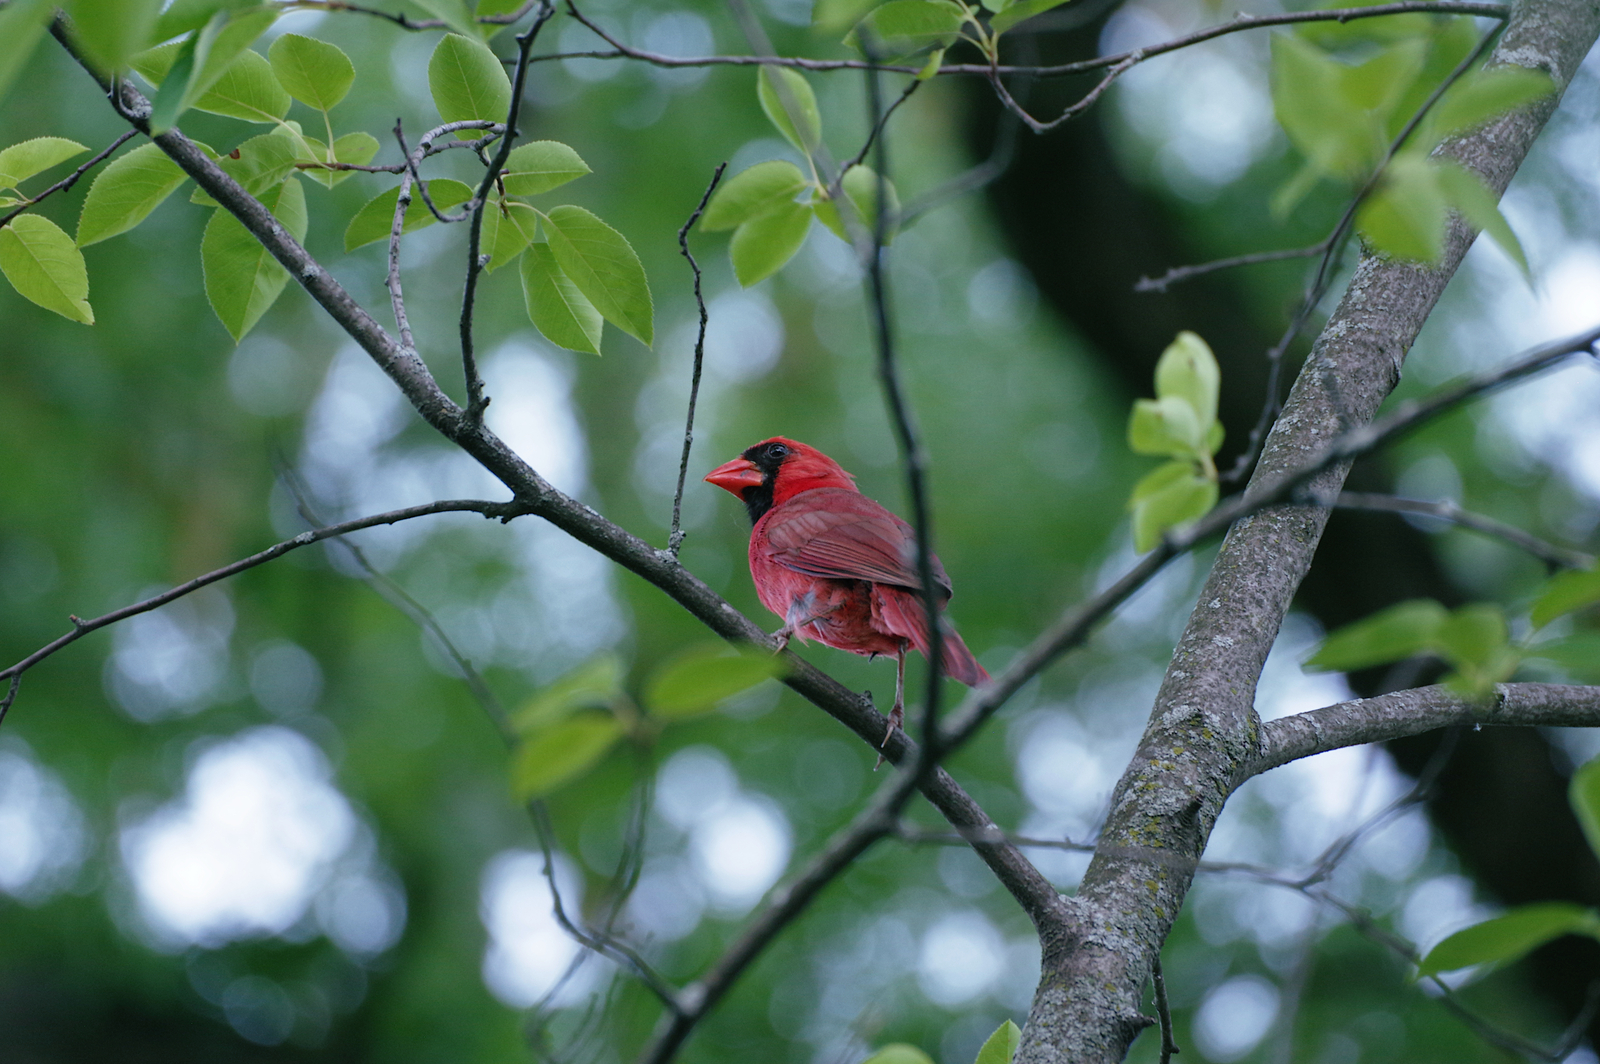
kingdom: Animalia
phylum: Chordata
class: Aves
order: Passeriformes
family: Cardinalidae
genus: Cardinalis
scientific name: Cardinalis cardinalis
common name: Northern cardinal
